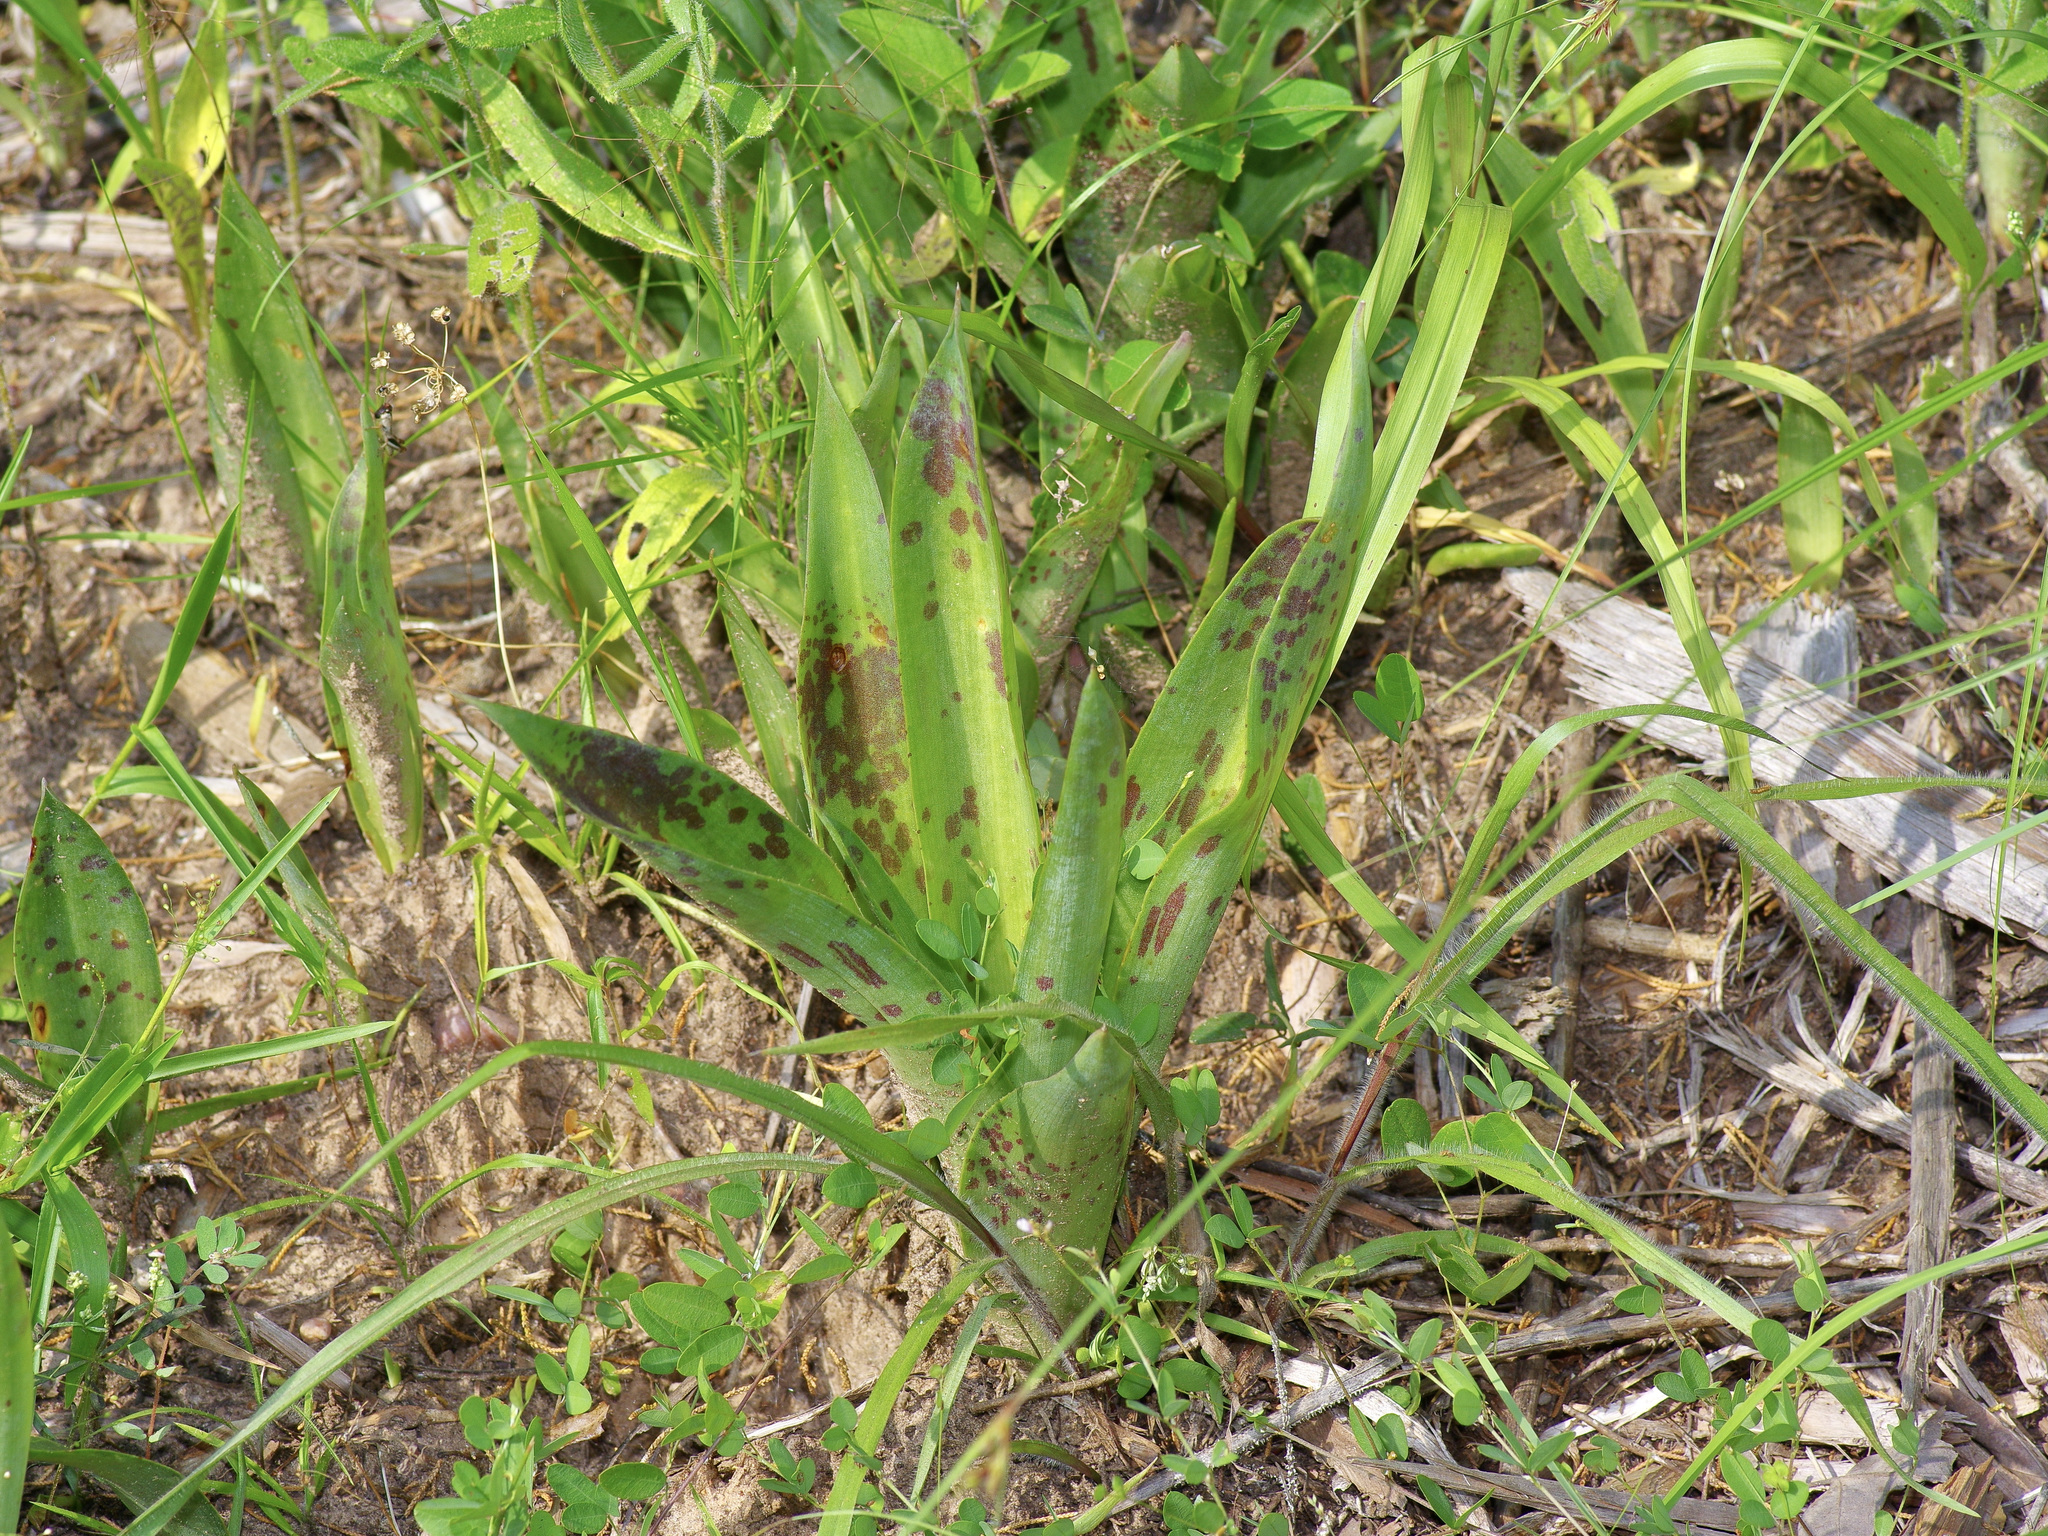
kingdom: Plantae
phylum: Tracheophyta
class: Liliopsida
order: Asparagales
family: Asparagaceae
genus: Agave
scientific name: Agave virginica
